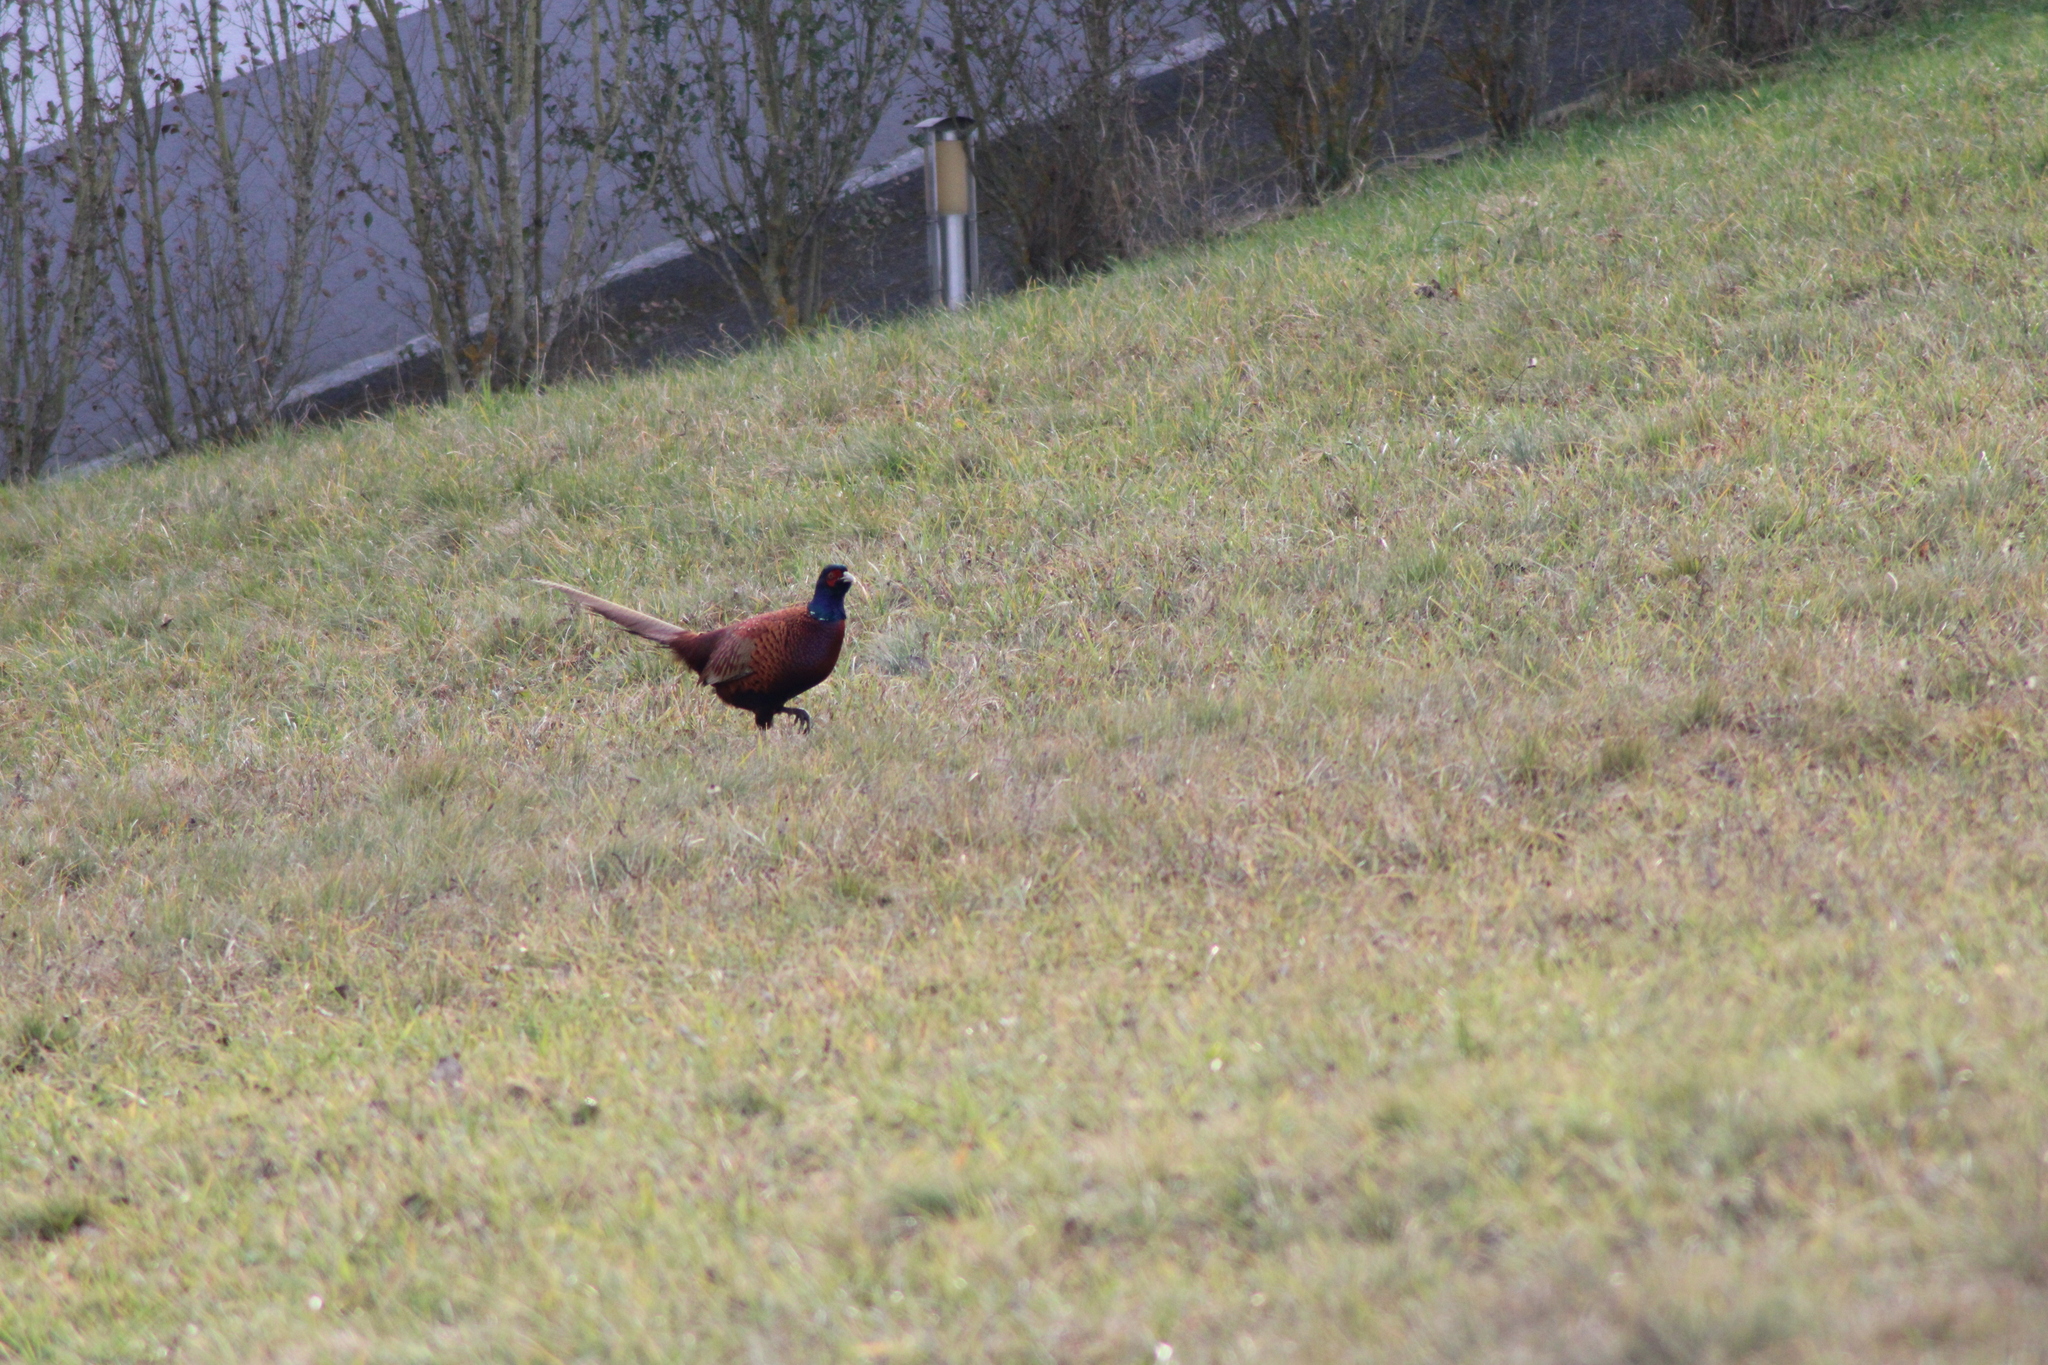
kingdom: Animalia
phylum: Chordata
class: Aves
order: Galliformes
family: Phasianidae
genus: Phasianus
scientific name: Phasianus colchicus
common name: Common pheasant
